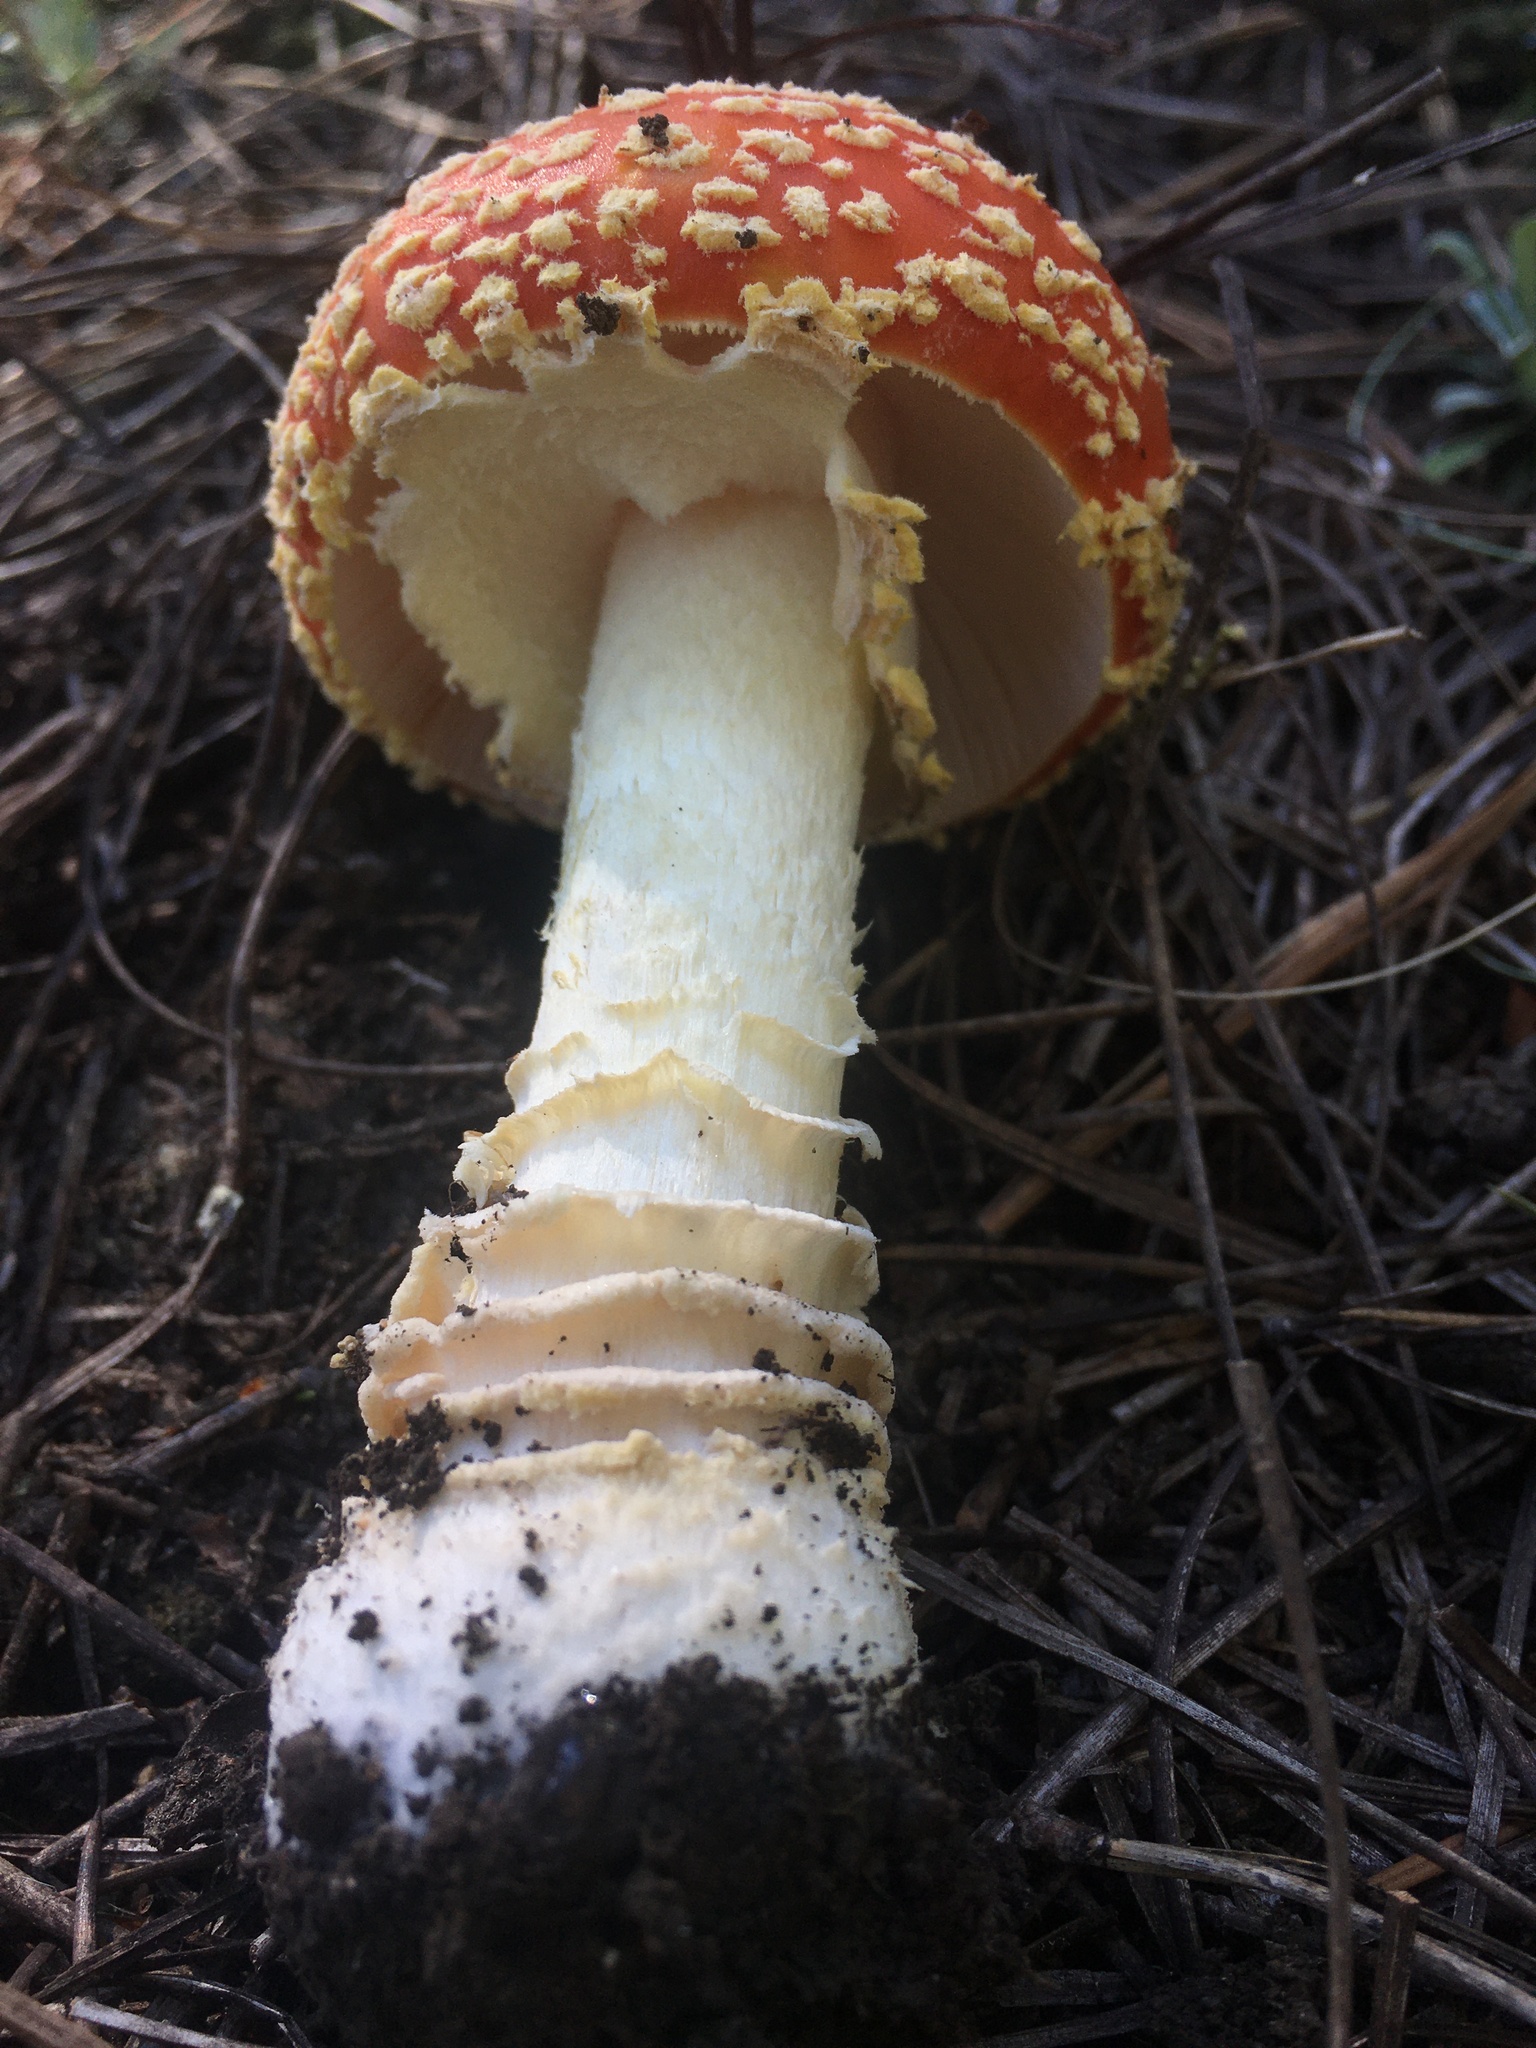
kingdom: Fungi
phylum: Basidiomycota
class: Agaricomycetes
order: Agaricales
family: Amanitaceae
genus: Amanita
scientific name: Amanita muscaria
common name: Fly agaric
